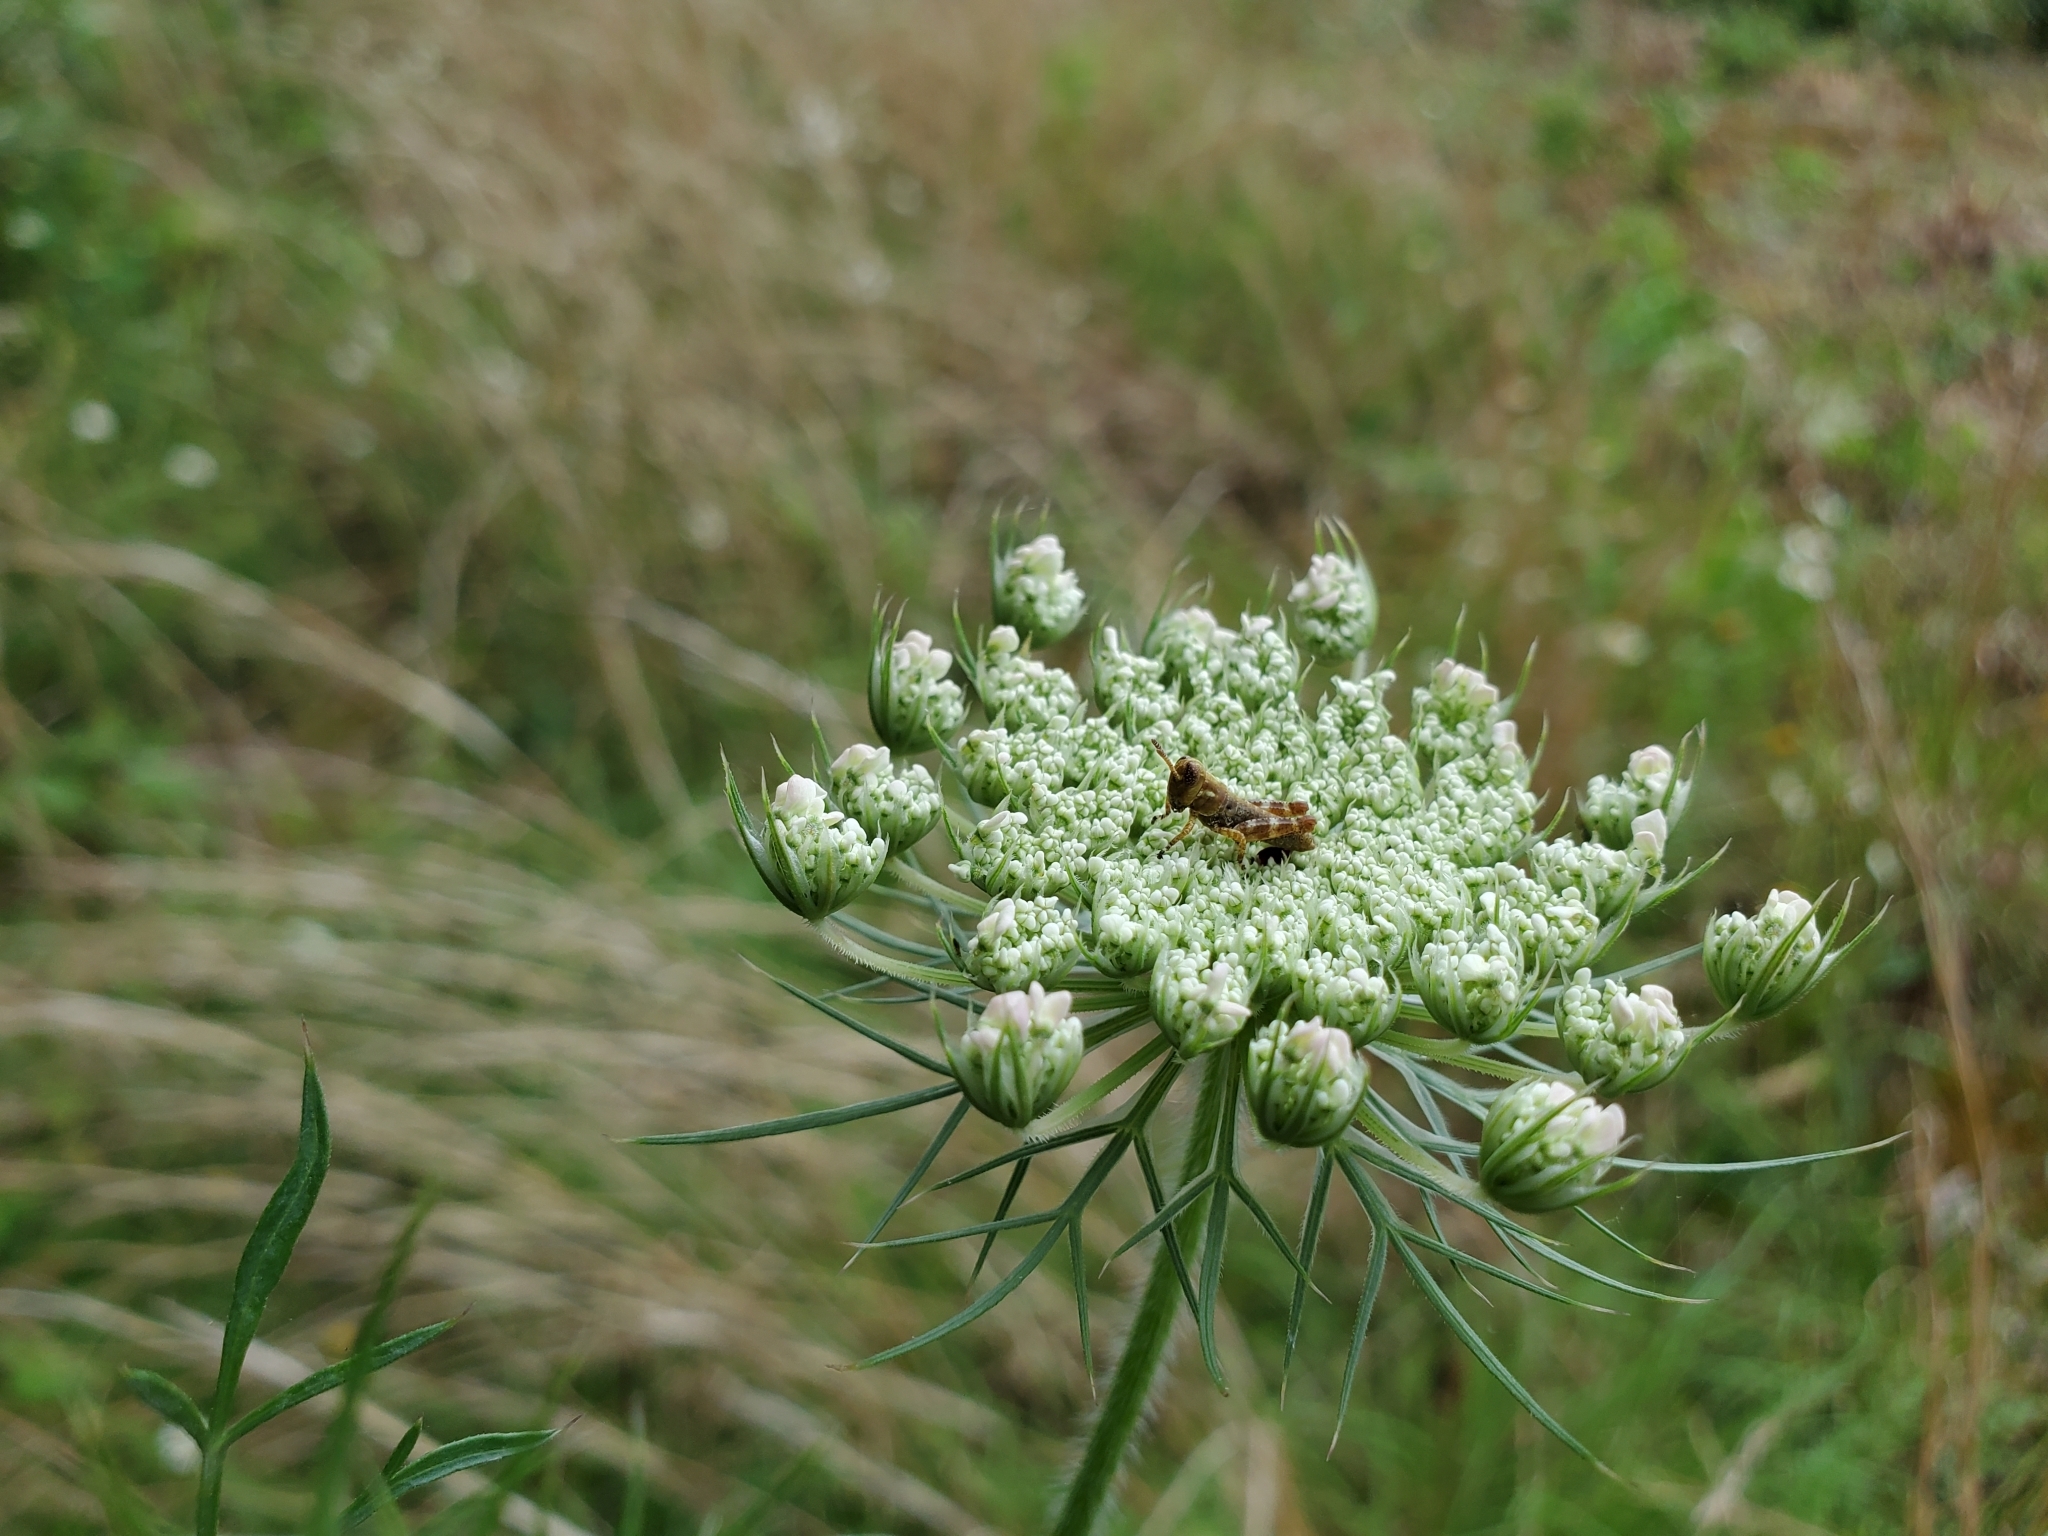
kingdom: Plantae
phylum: Tracheophyta
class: Magnoliopsida
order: Apiales
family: Apiaceae
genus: Daucus
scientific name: Daucus carota
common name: Wild carrot
